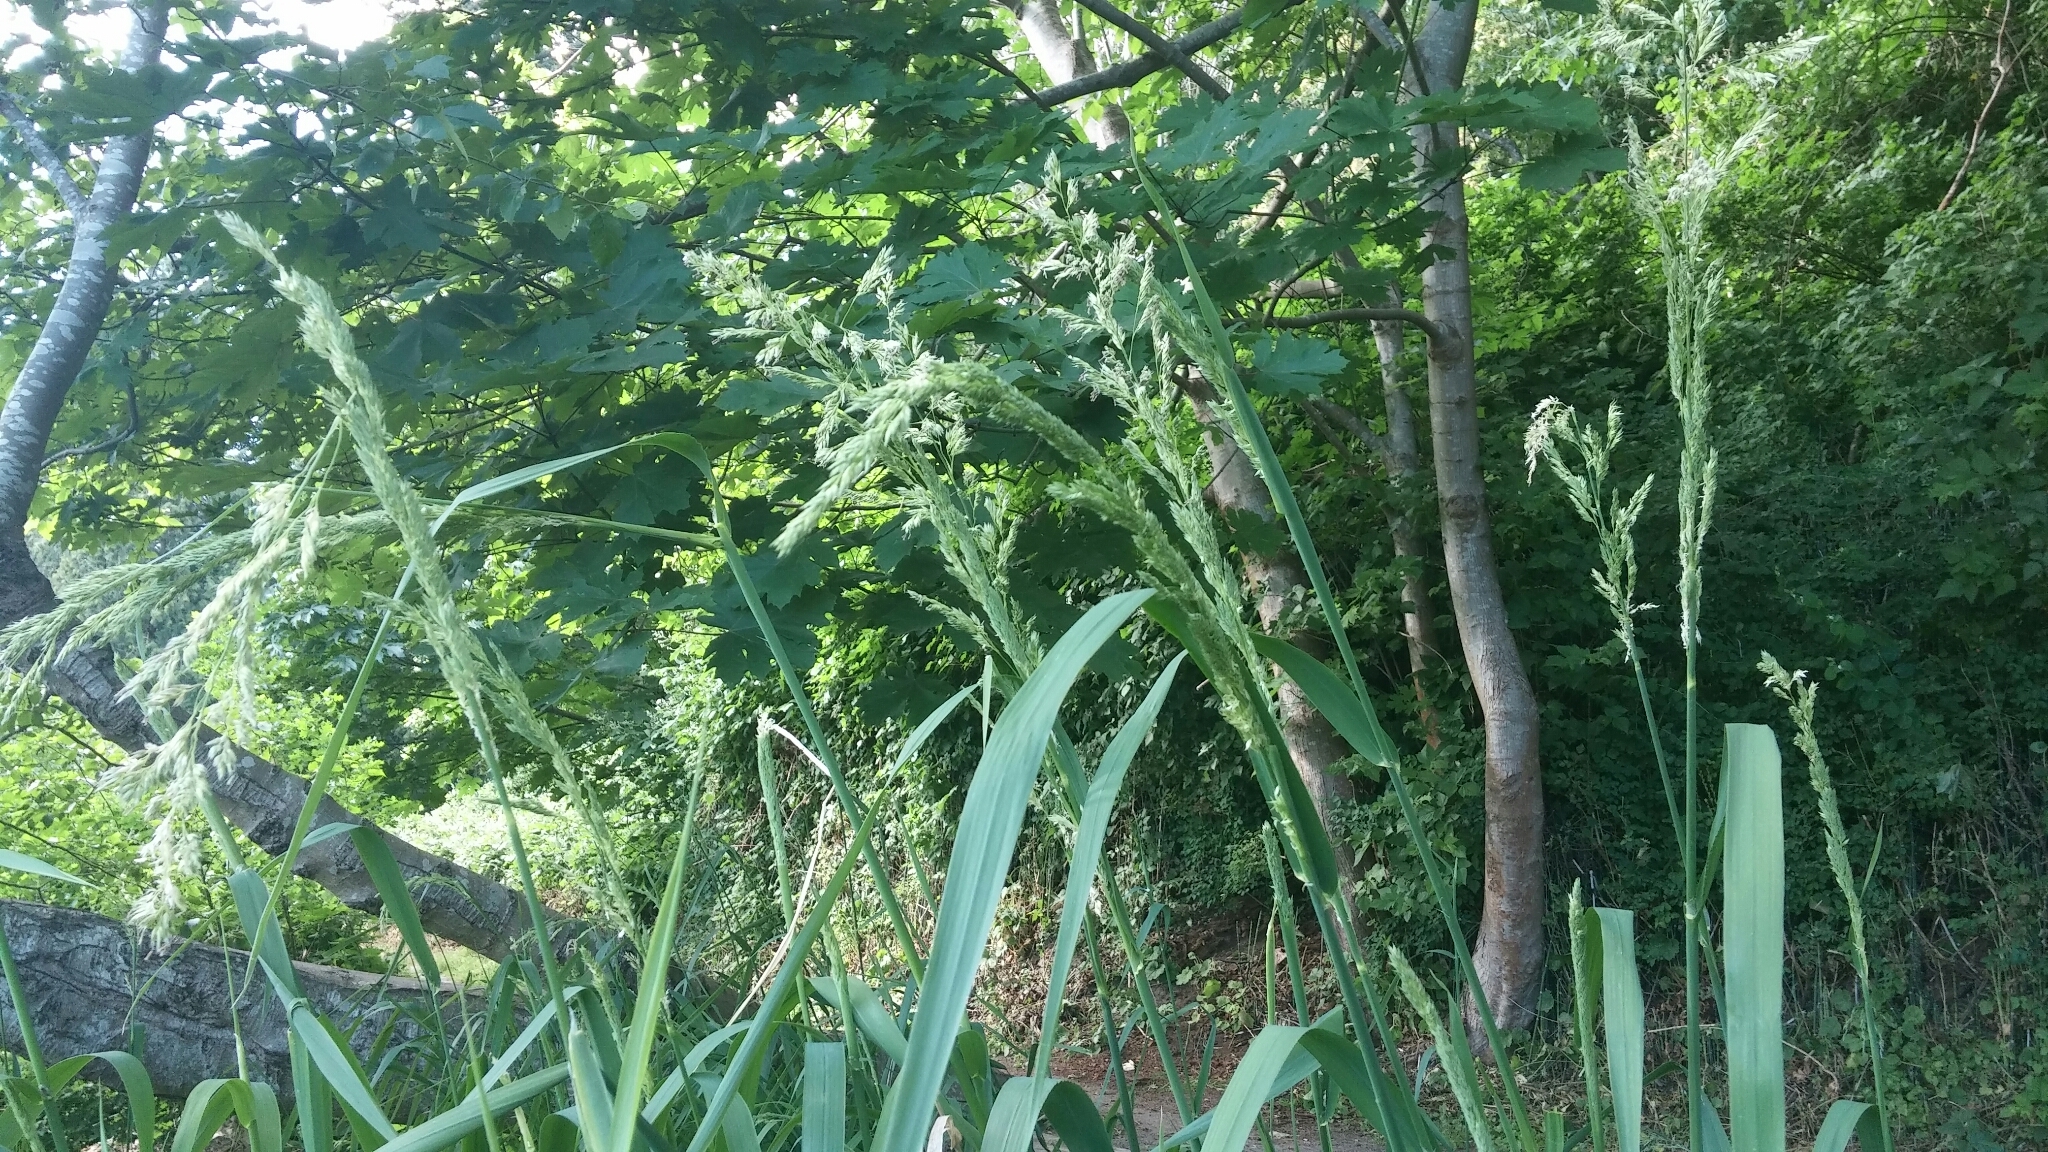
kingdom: Plantae
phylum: Tracheophyta
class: Liliopsida
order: Poales
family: Poaceae
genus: Phalaris
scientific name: Phalaris arundinacea
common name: Reed canary-grass
